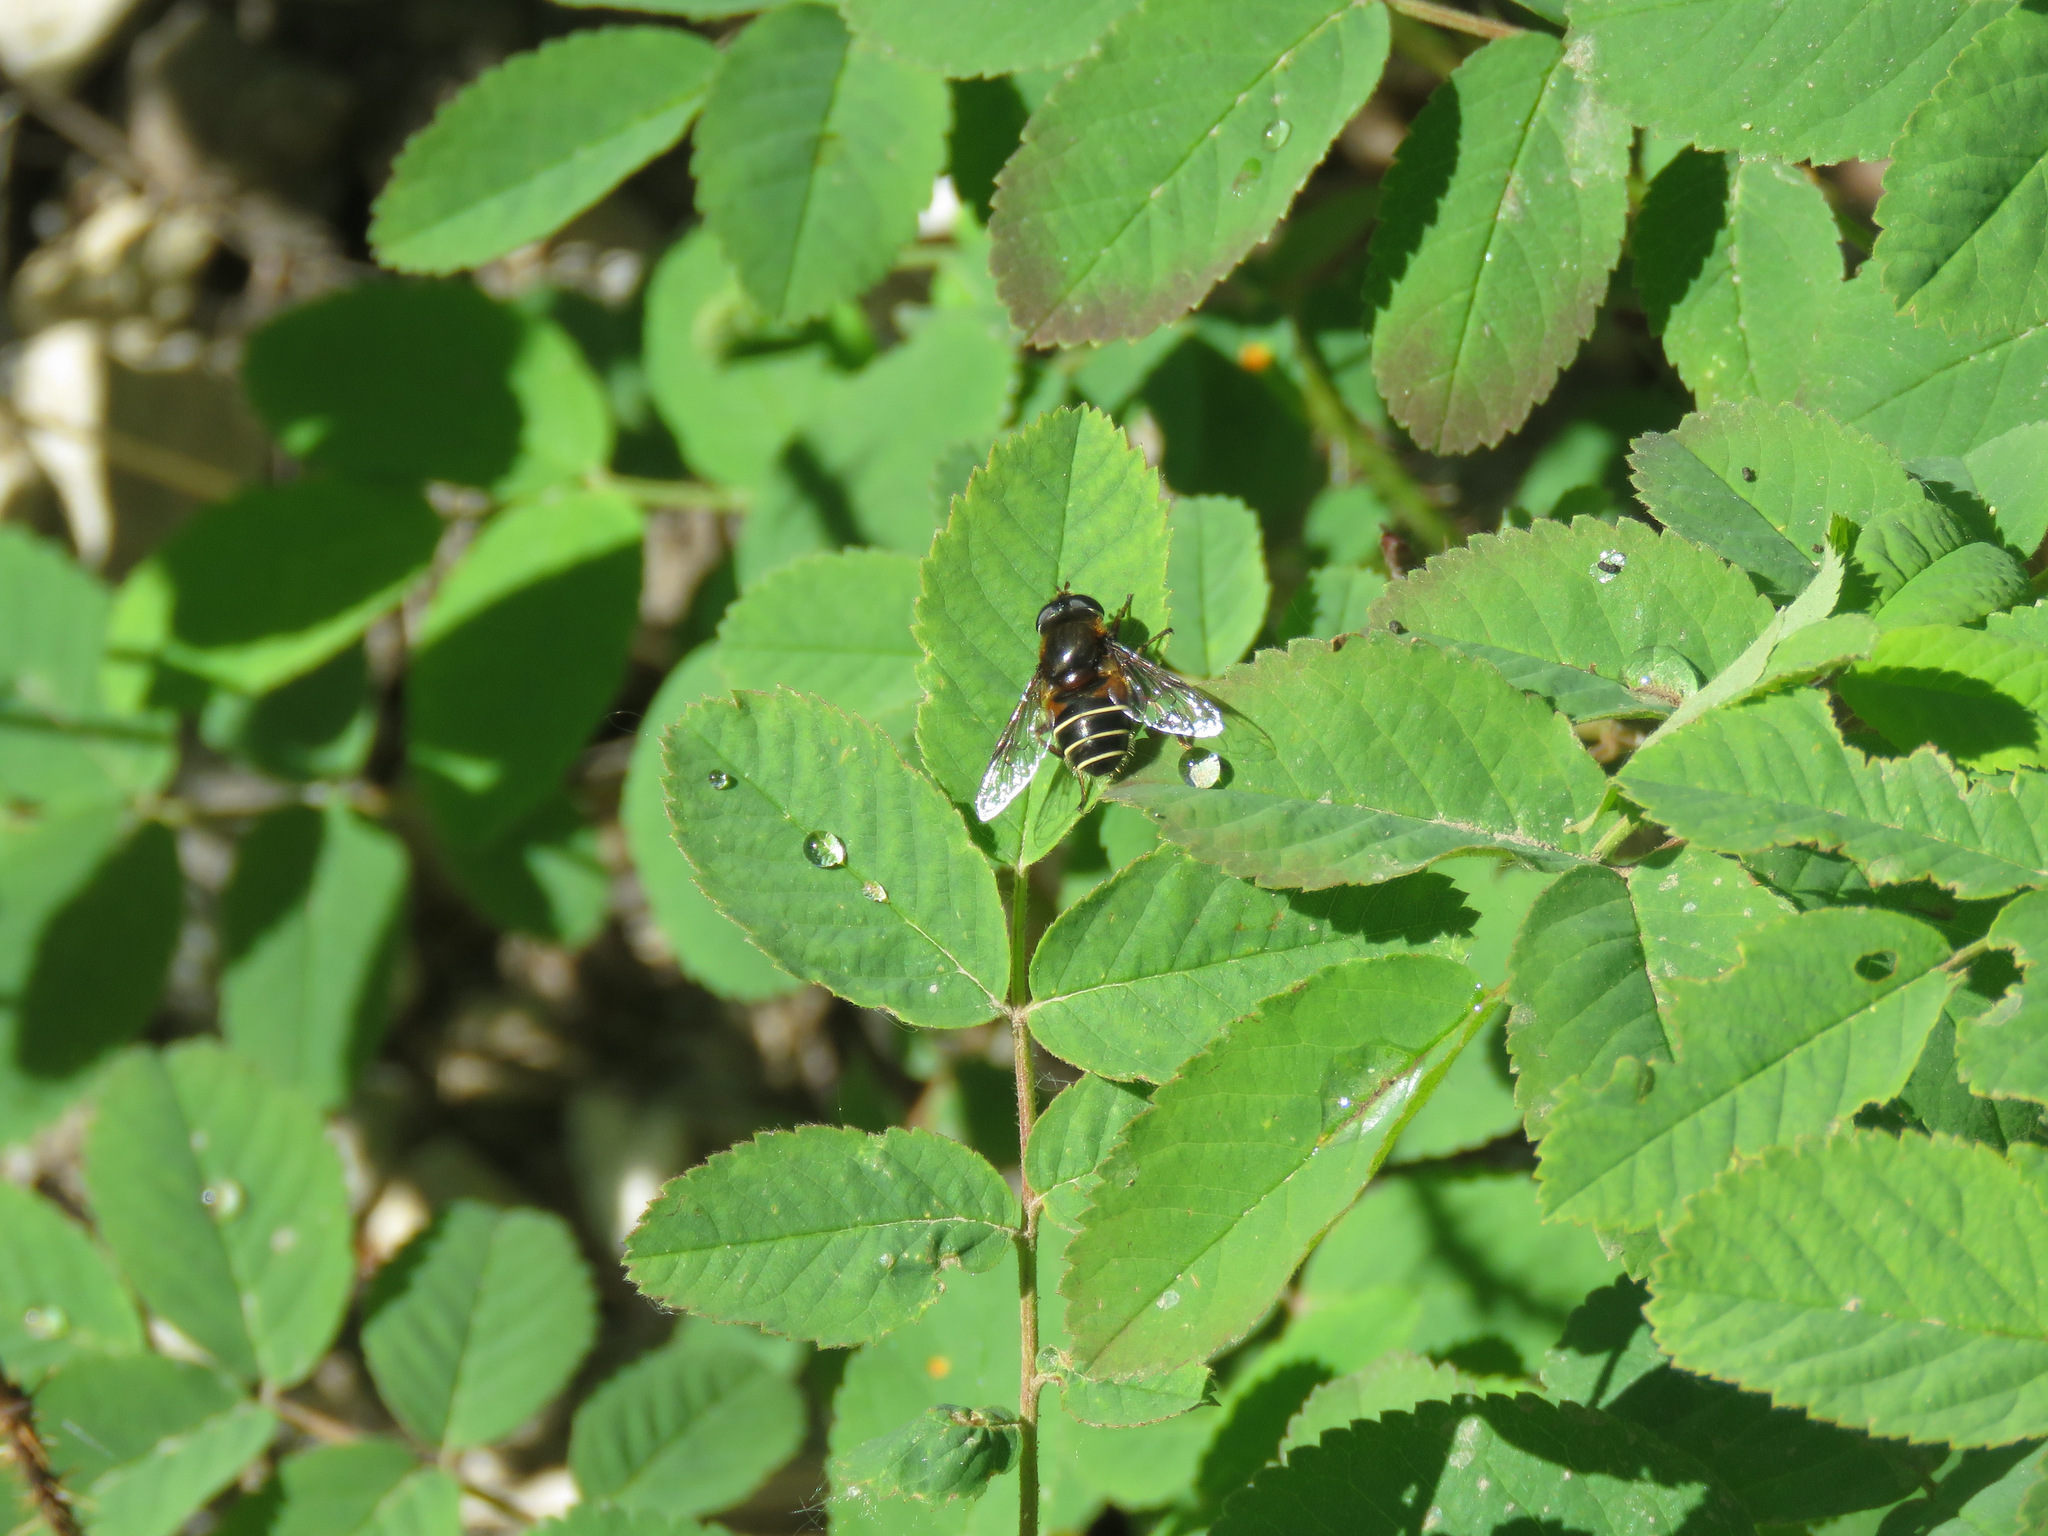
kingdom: Animalia
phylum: Arthropoda
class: Insecta
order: Diptera
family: Syrphidae
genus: Eristalis
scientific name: Eristalis cryptarum
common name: Bog hoverfly
